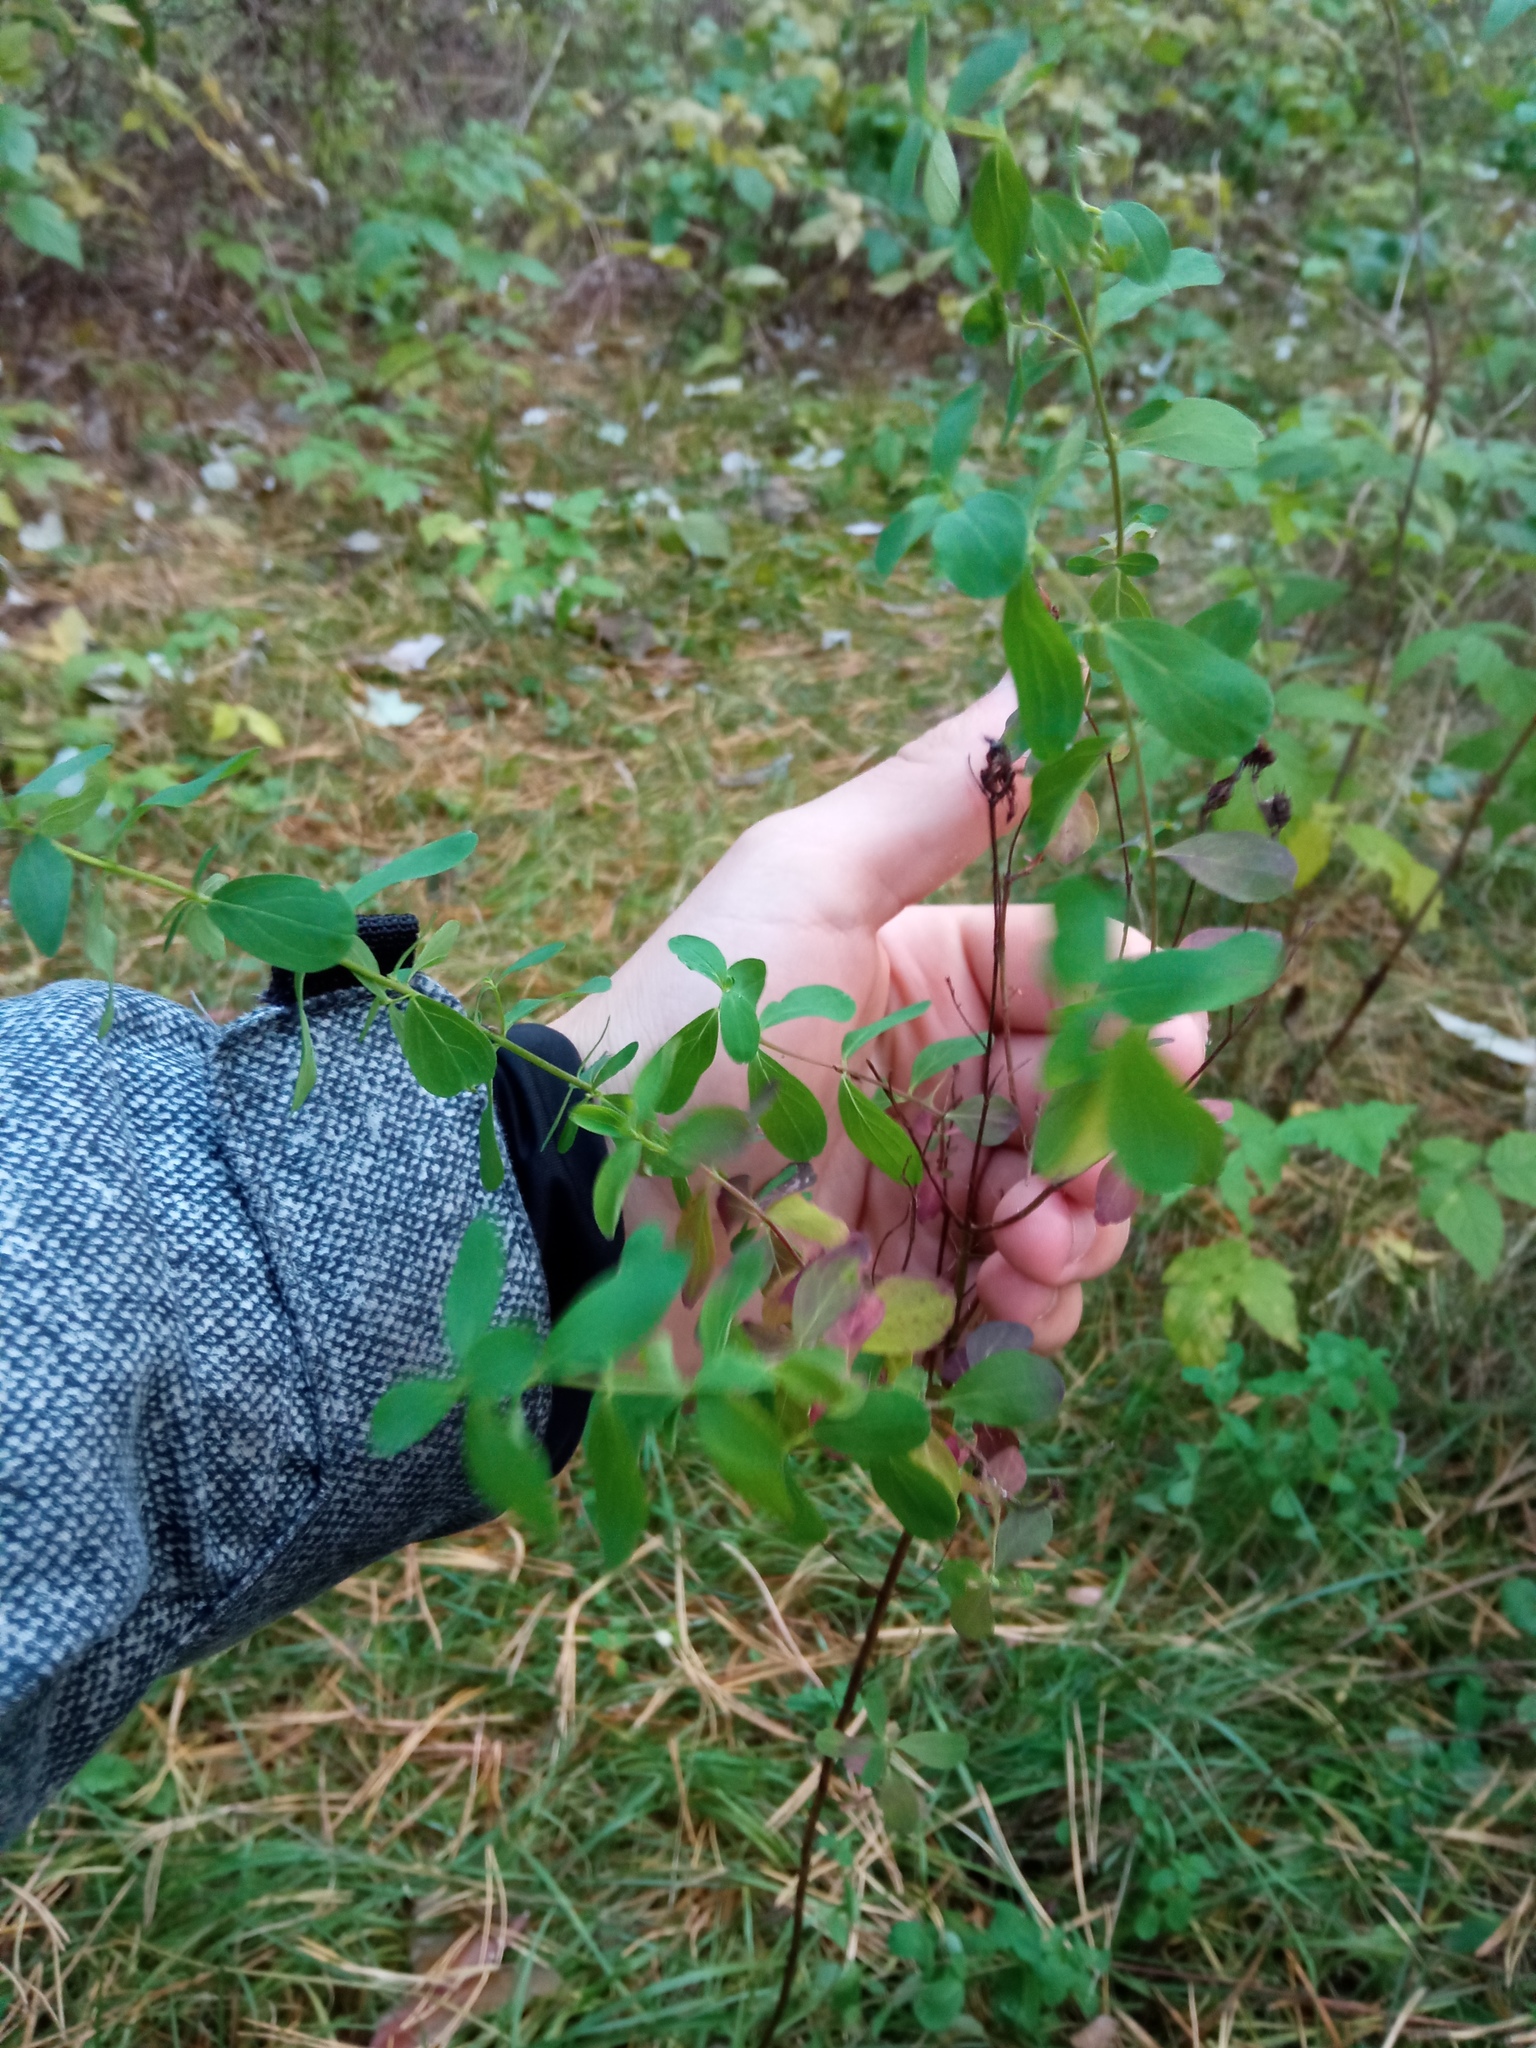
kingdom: Plantae
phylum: Tracheophyta
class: Magnoliopsida
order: Malpighiales
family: Hypericaceae
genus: Hypericum
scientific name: Hypericum perforatum
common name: Common st. johnswort
